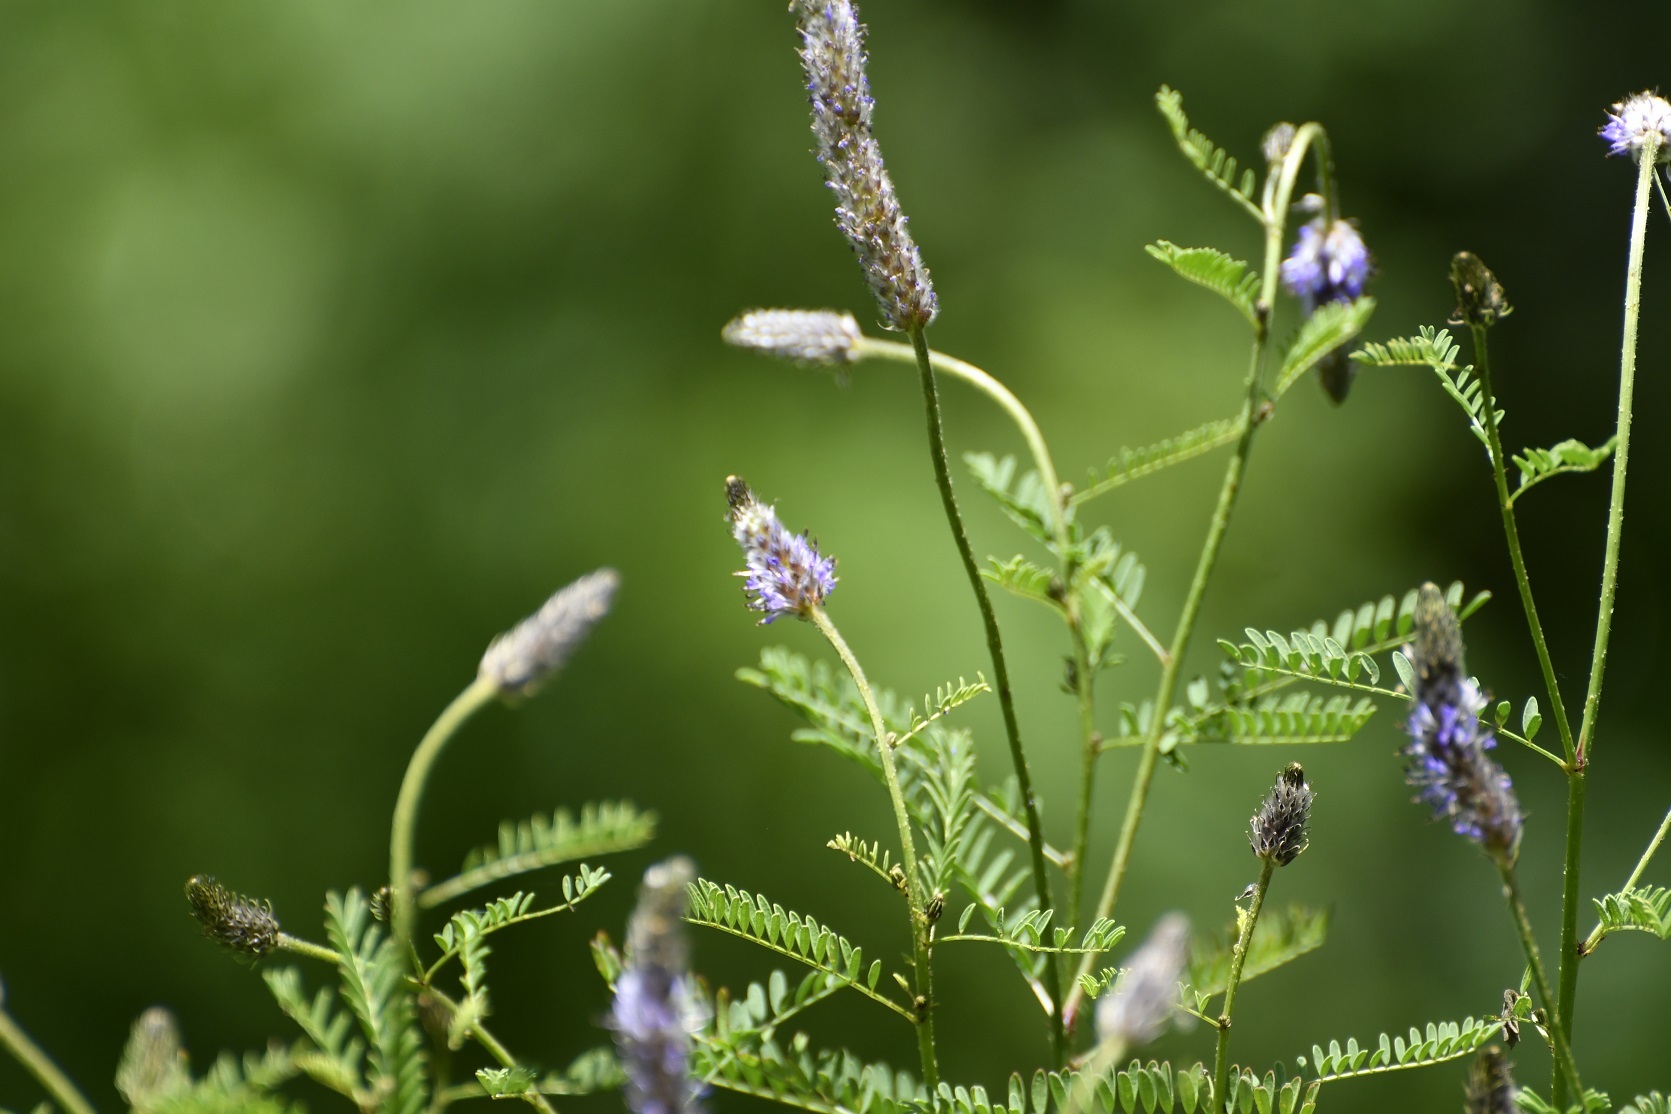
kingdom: Plantae
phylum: Tracheophyta
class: Magnoliopsida
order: Fabales
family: Fabaceae
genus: Dalea
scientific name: Dalea leporina
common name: Foxtail dalea
